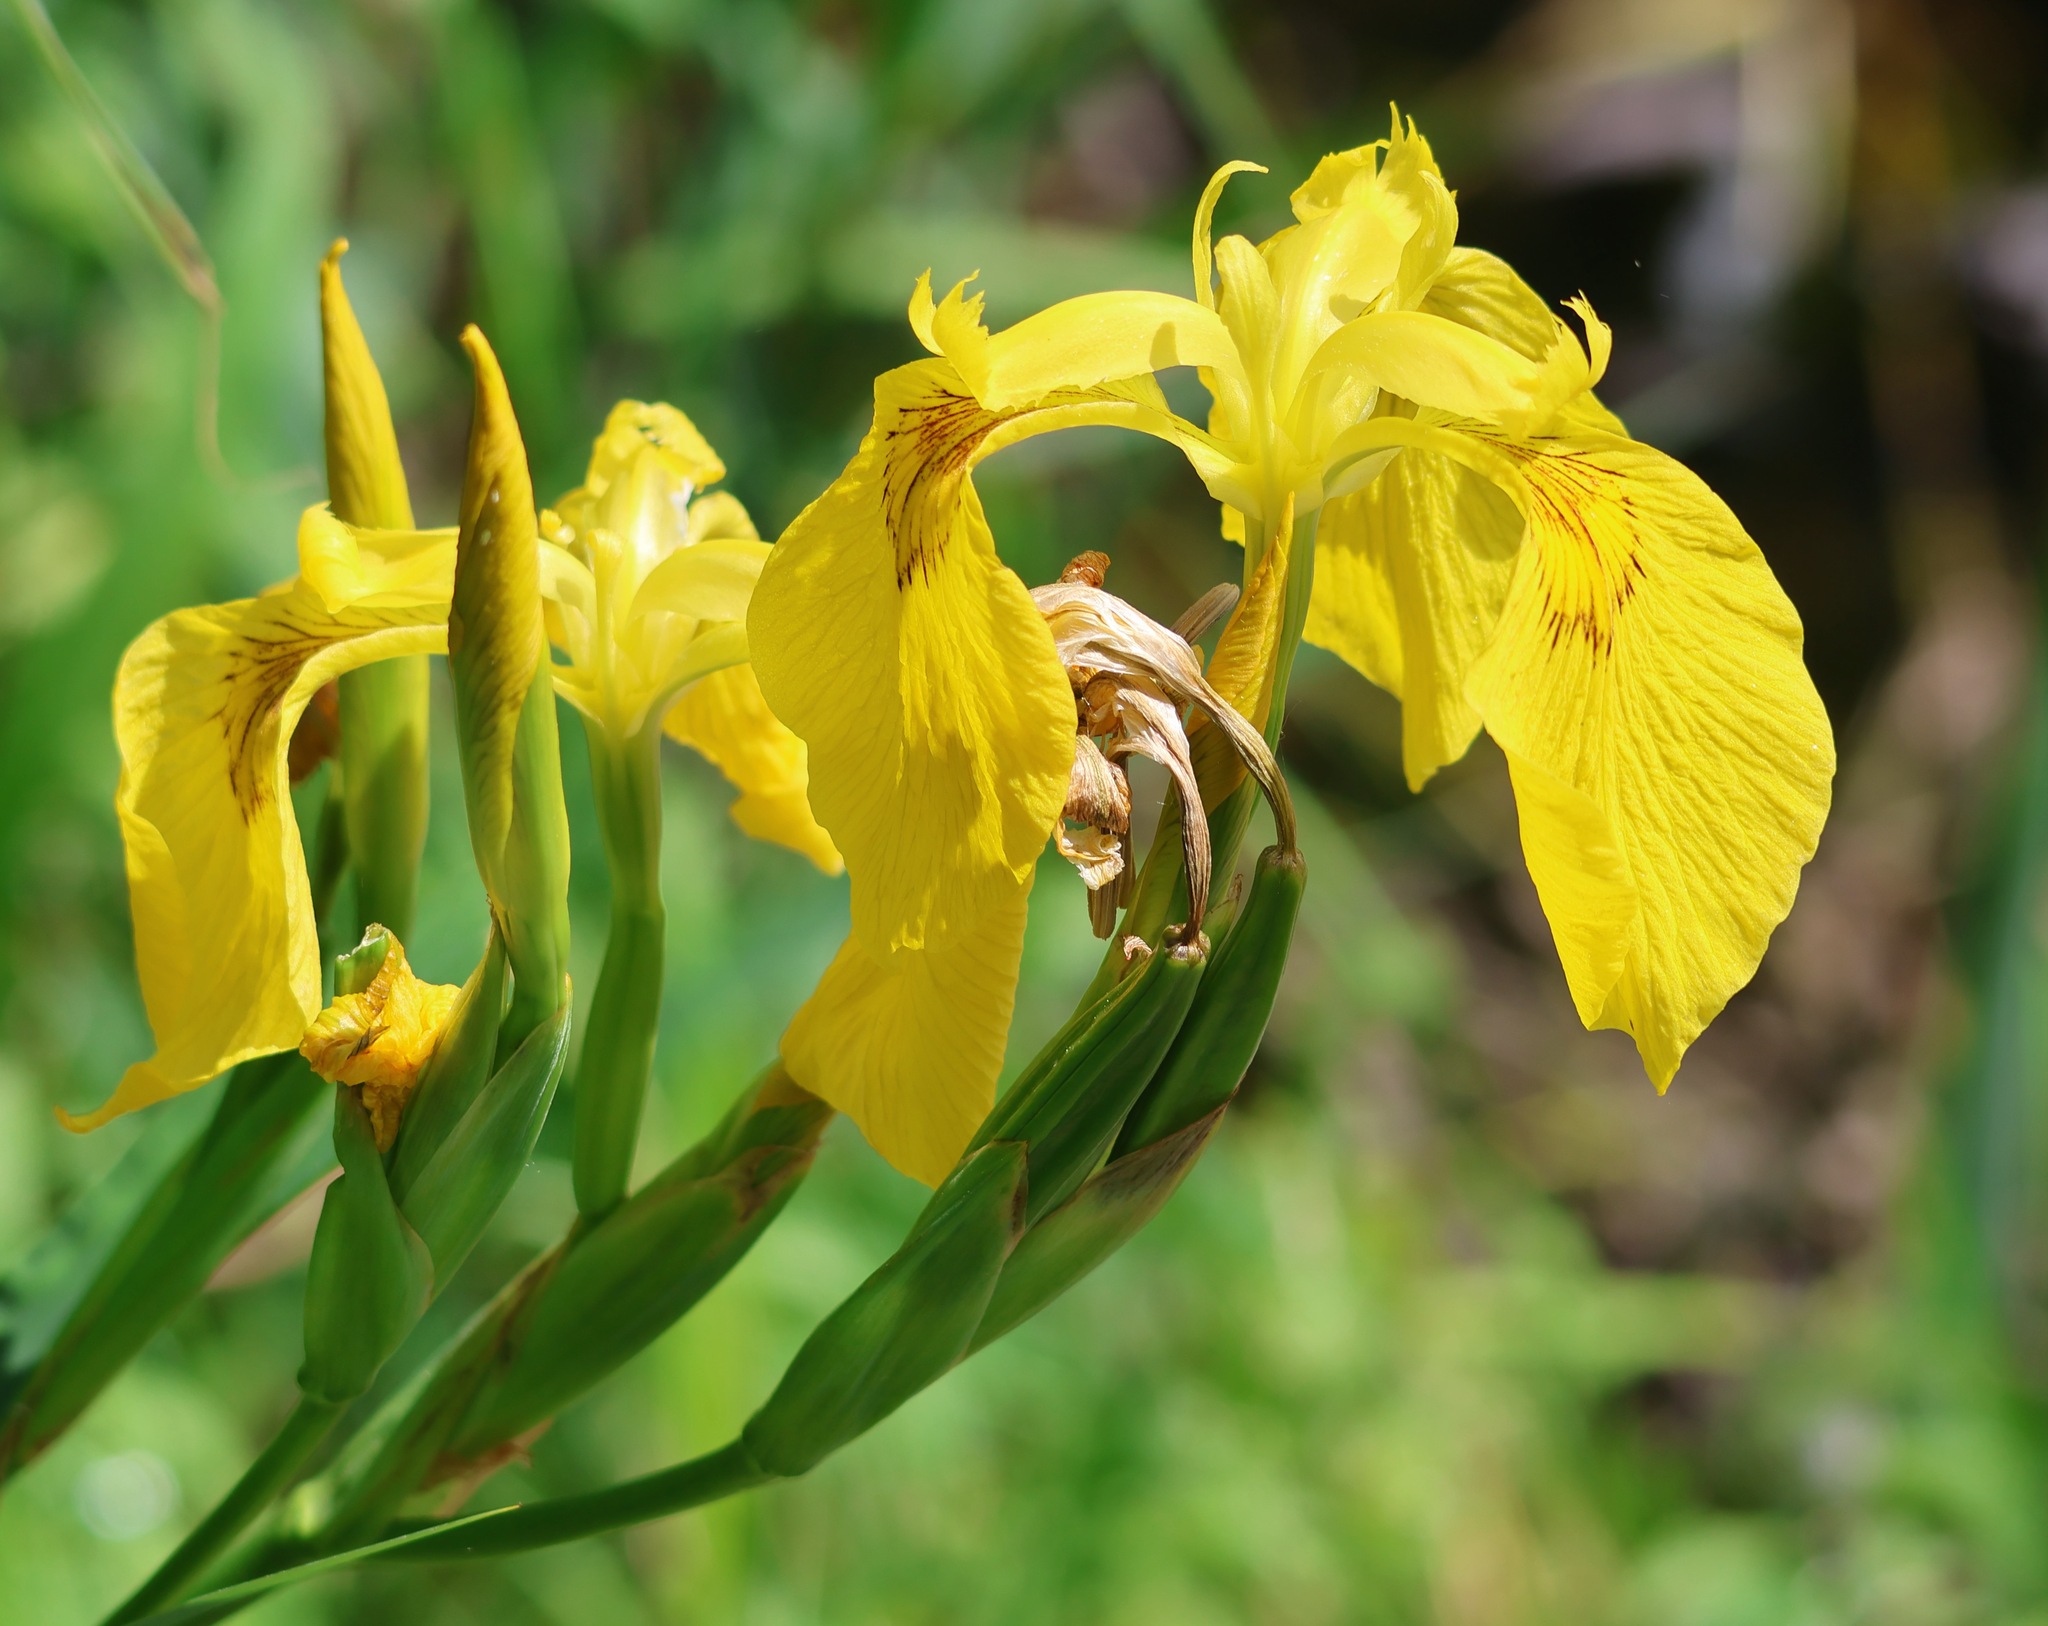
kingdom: Plantae
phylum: Tracheophyta
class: Liliopsida
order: Asparagales
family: Iridaceae
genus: Iris
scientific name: Iris pseudacorus
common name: Yellow flag
